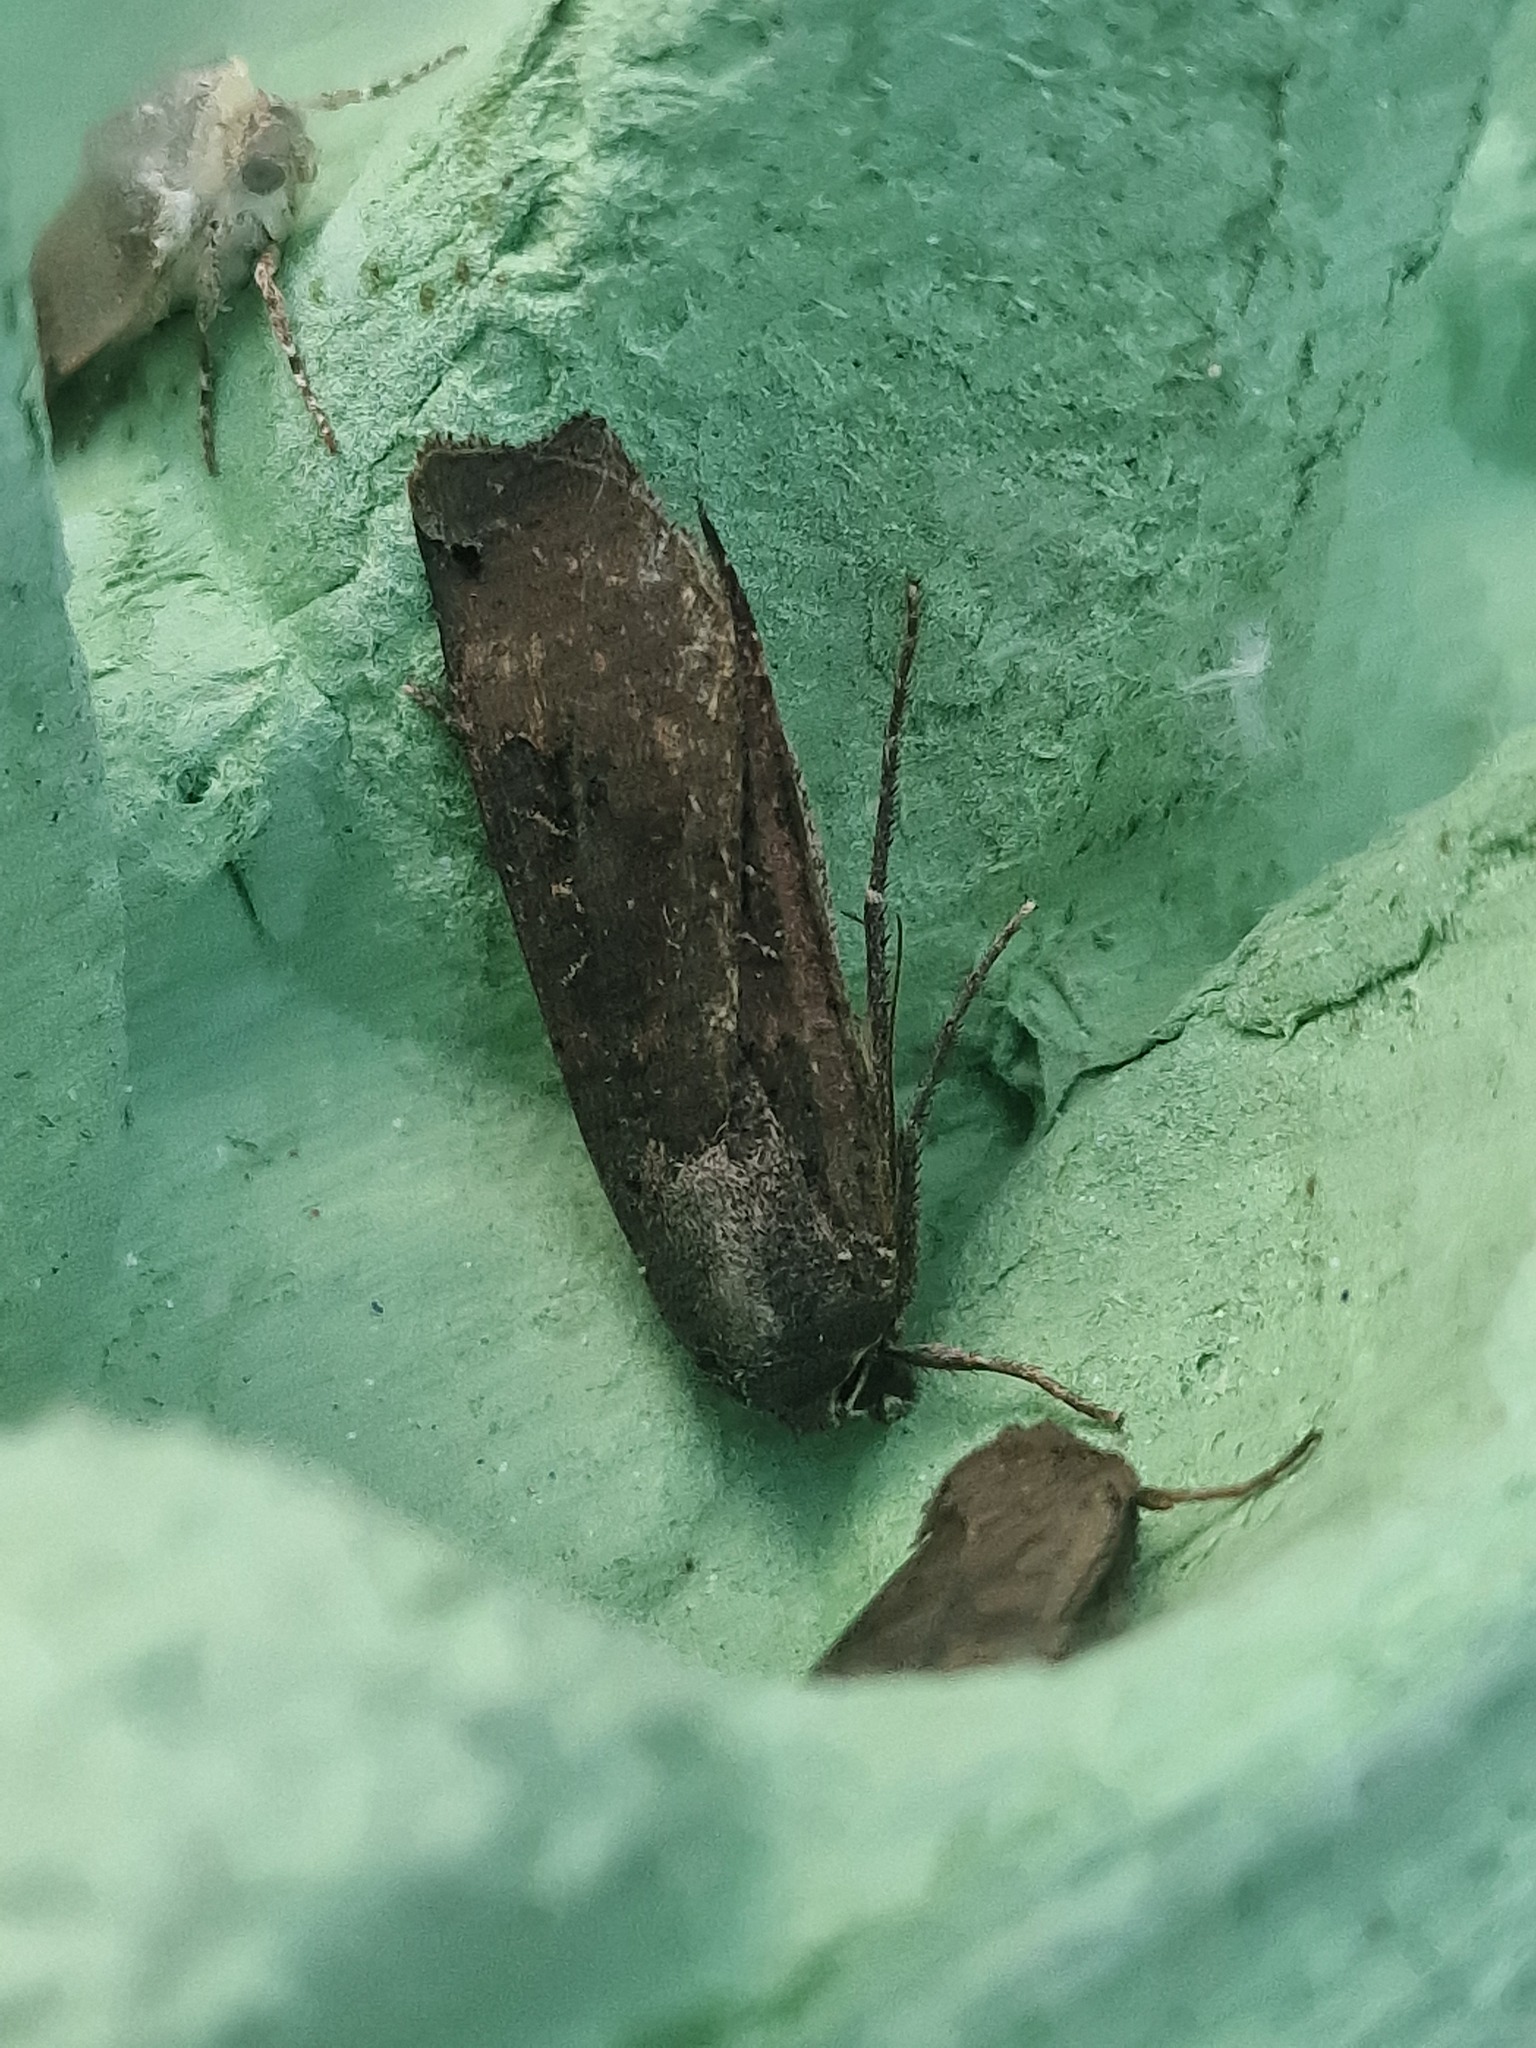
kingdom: Animalia
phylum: Arthropoda
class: Insecta
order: Lepidoptera
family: Noctuidae
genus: Noctua
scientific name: Noctua pronuba
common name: Large yellow underwing
